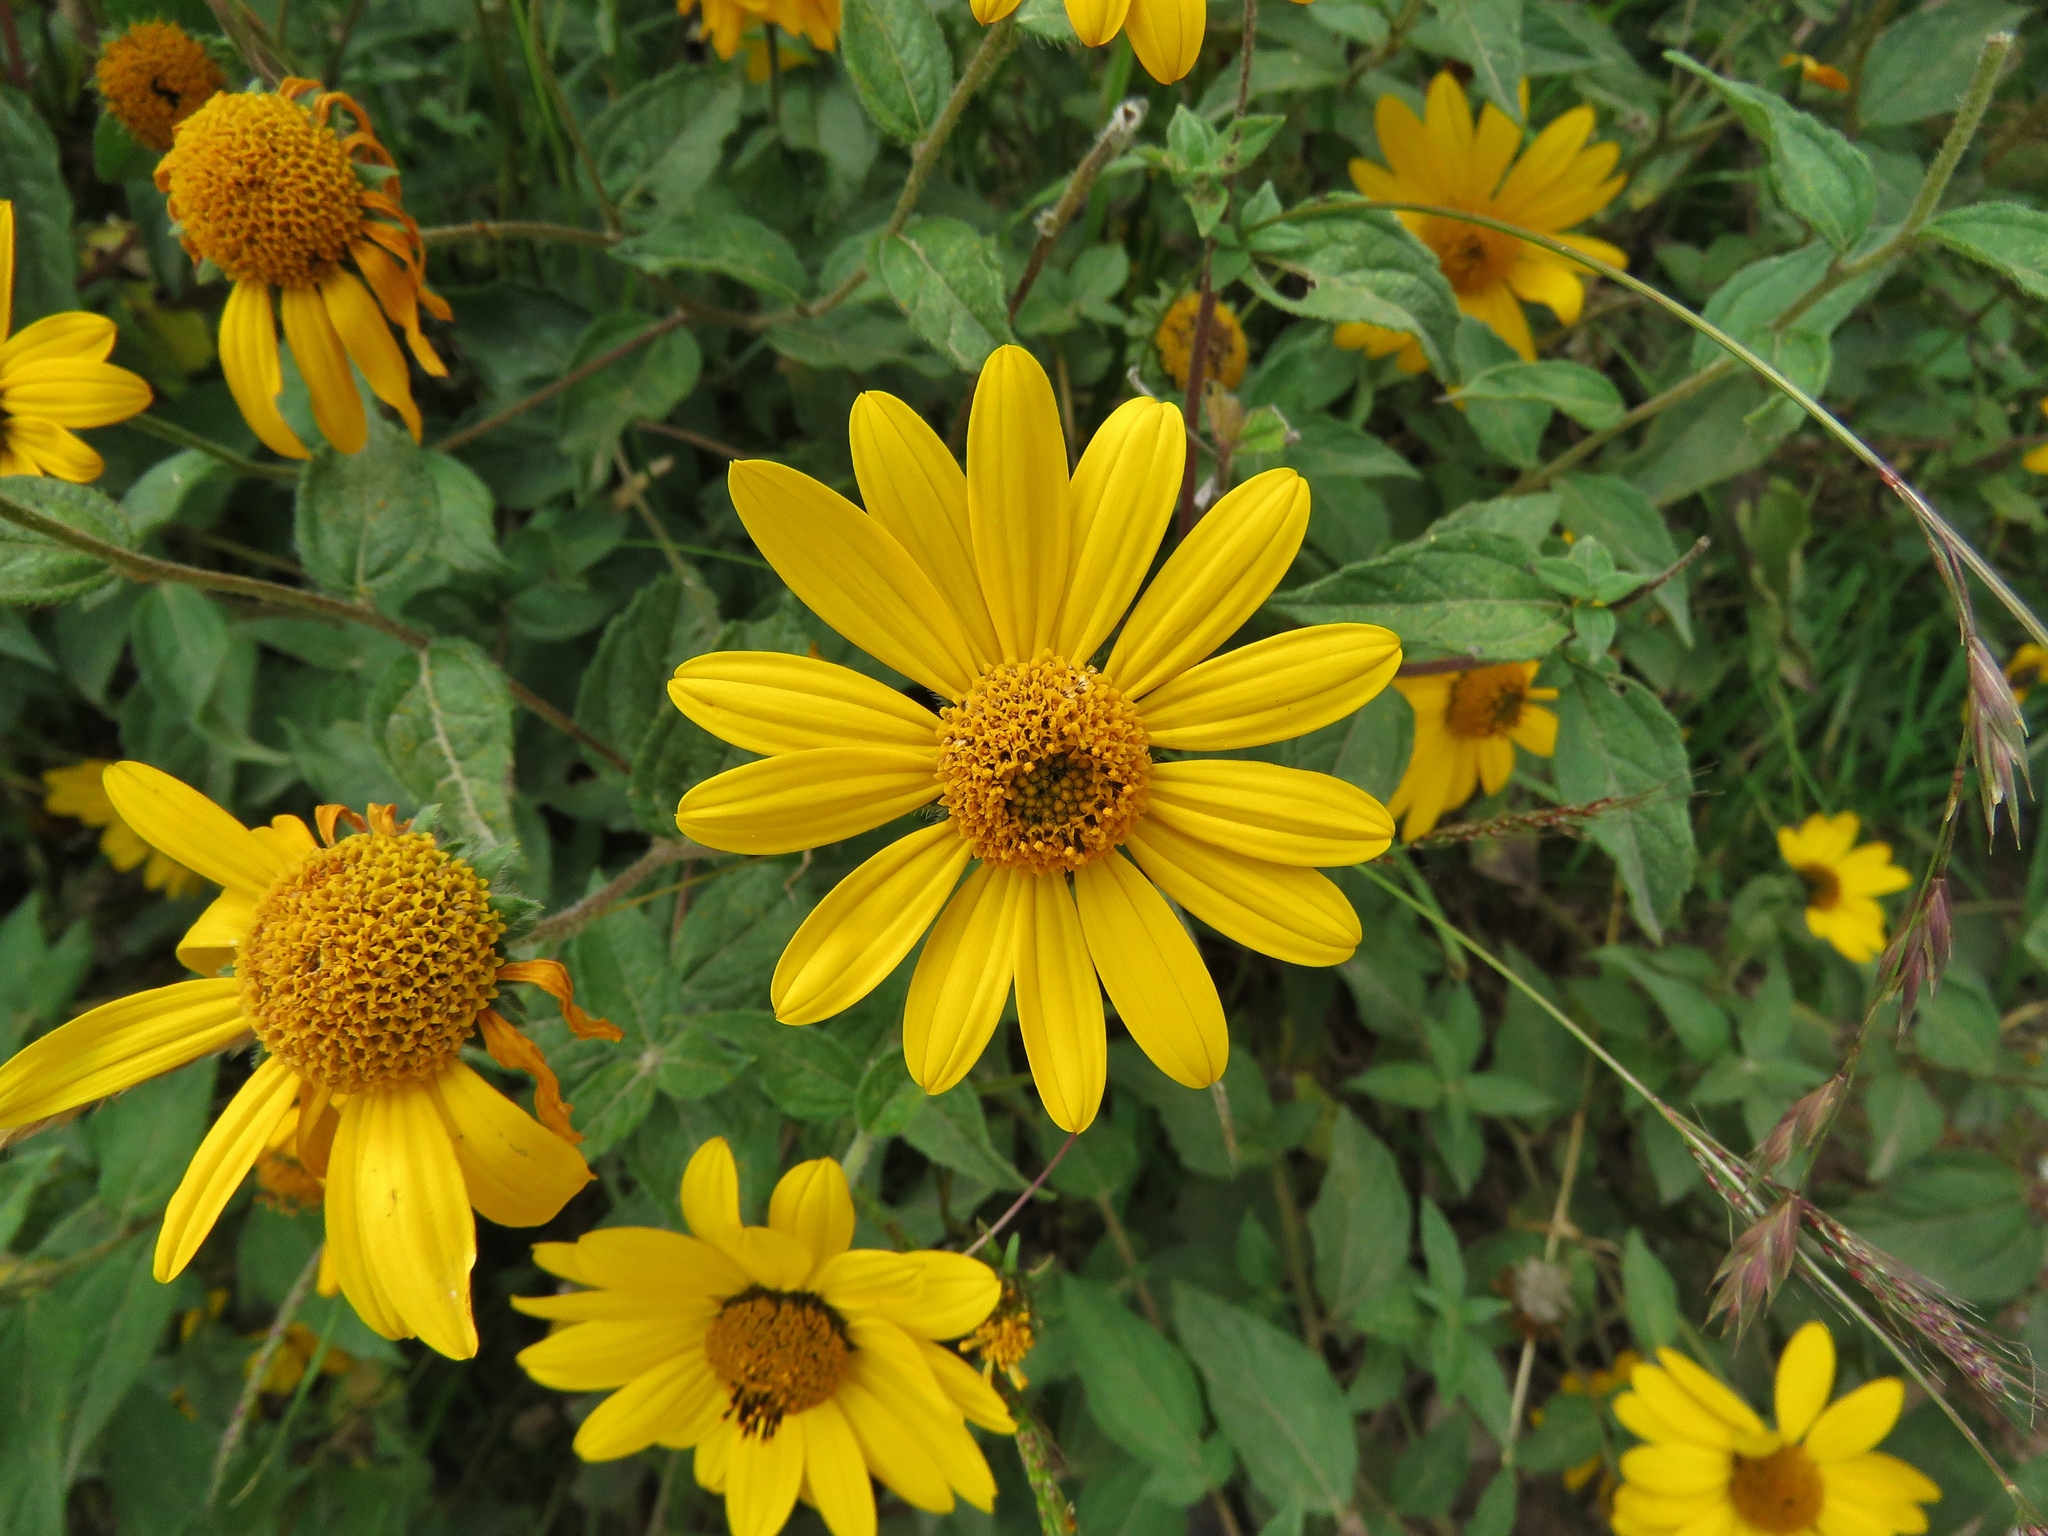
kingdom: Plantae
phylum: Tracheophyta
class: Magnoliopsida
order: Asterales
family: Asteraceae
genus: Aldama
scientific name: Aldama helianthoides
